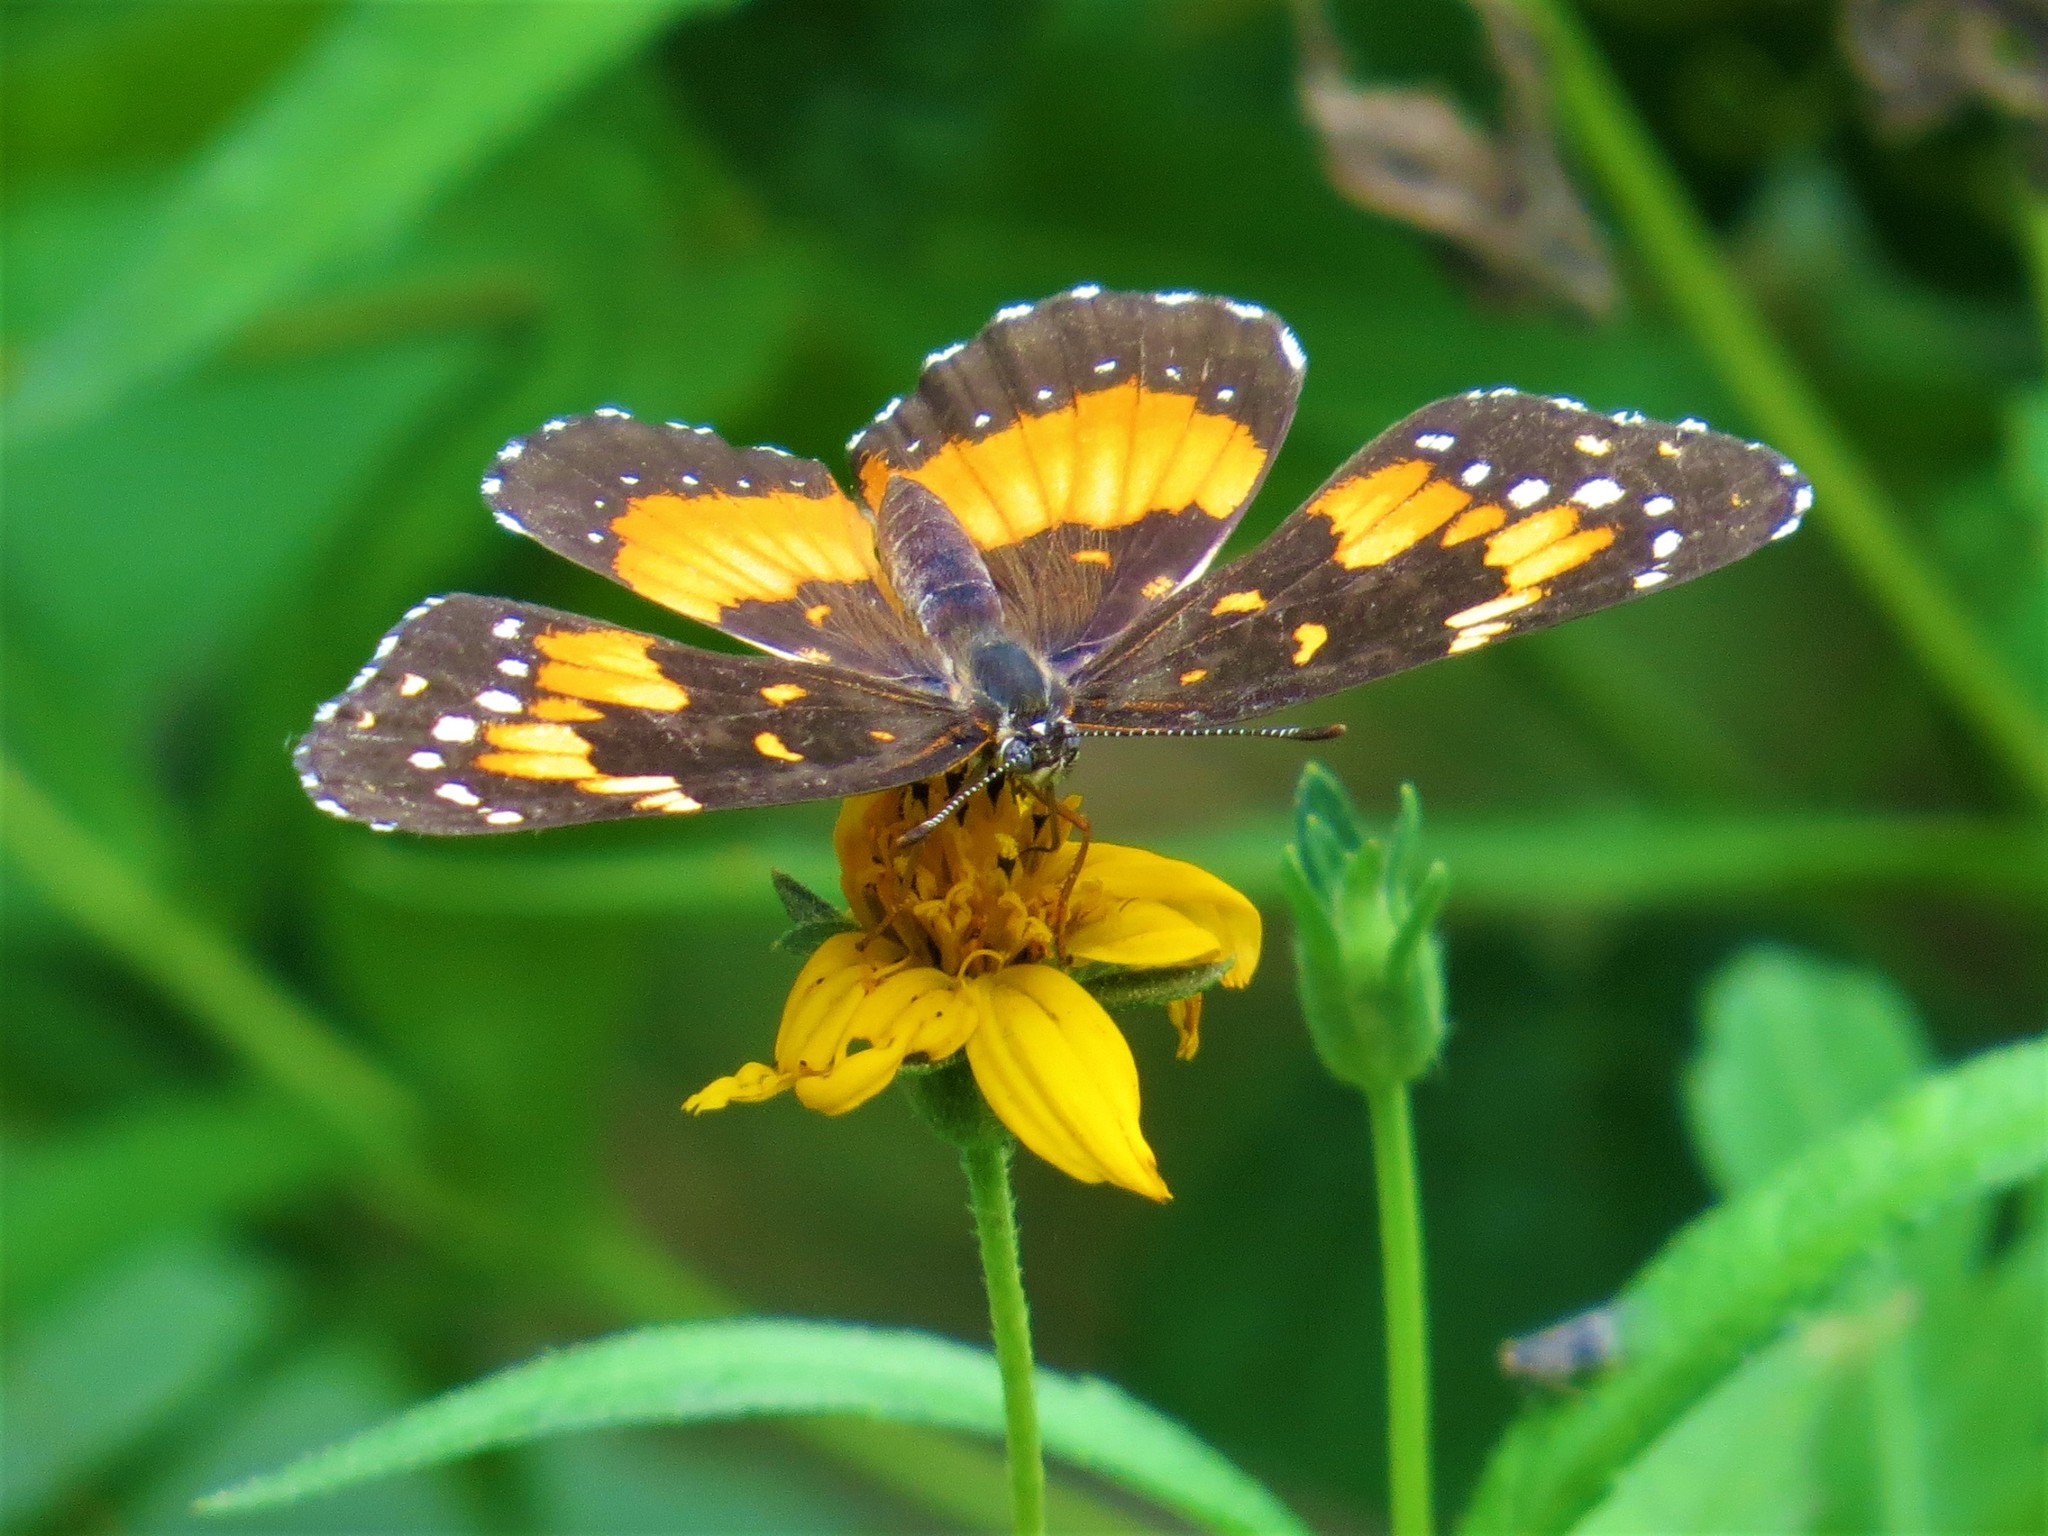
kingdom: Animalia
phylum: Arthropoda
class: Insecta
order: Lepidoptera
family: Nymphalidae
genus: Chlosyne
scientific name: Chlosyne lacinia
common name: Bordered patch
